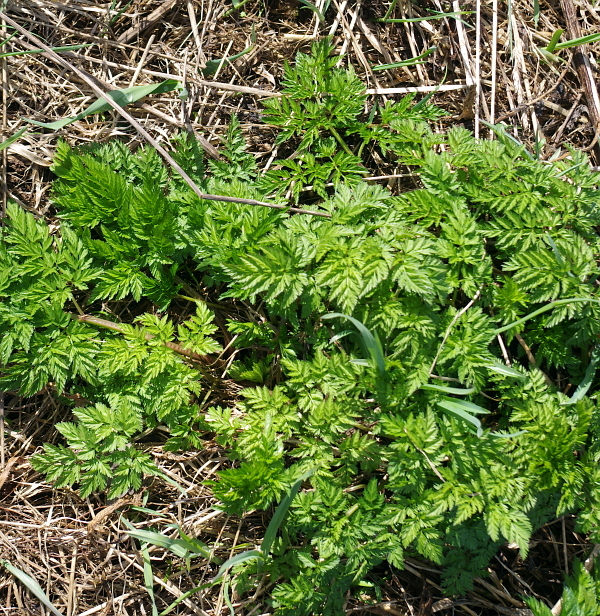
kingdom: Plantae
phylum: Tracheophyta
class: Magnoliopsida
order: Apiales
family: Apiaceae
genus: Anthriscus
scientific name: Anthriscus sylvestris
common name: Cow parsley
